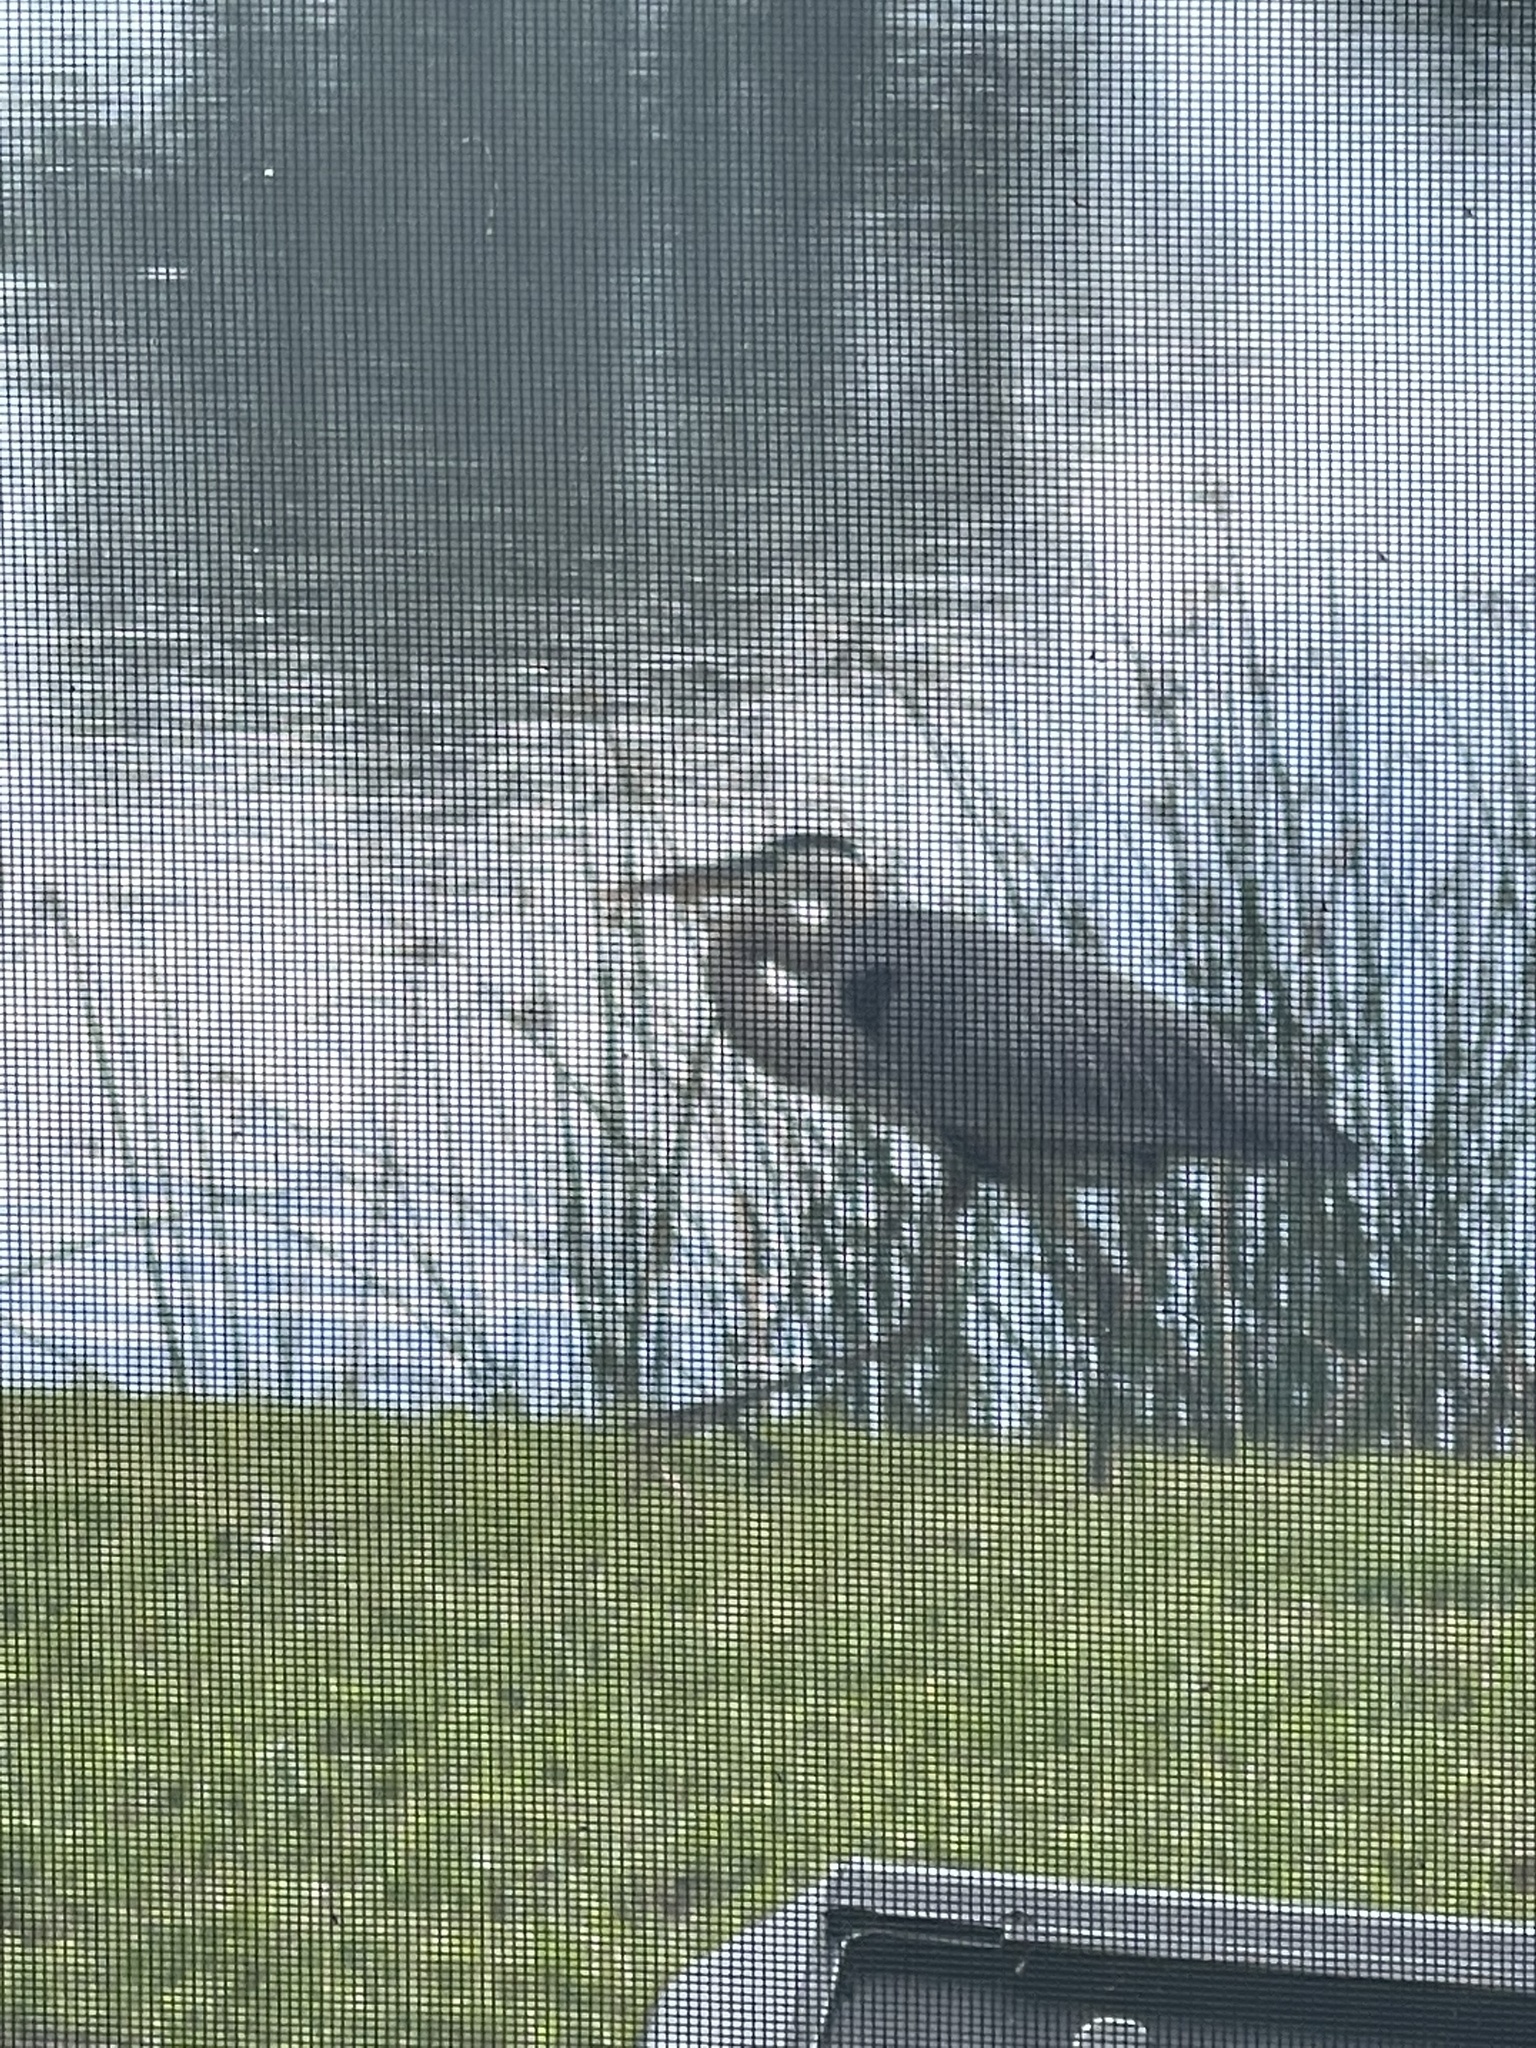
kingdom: Animalia
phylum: Chordata
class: Aves
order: Pelecaniformes
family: Ardeidae
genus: Ardea
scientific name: Ardea herodias
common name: Great blue heron
